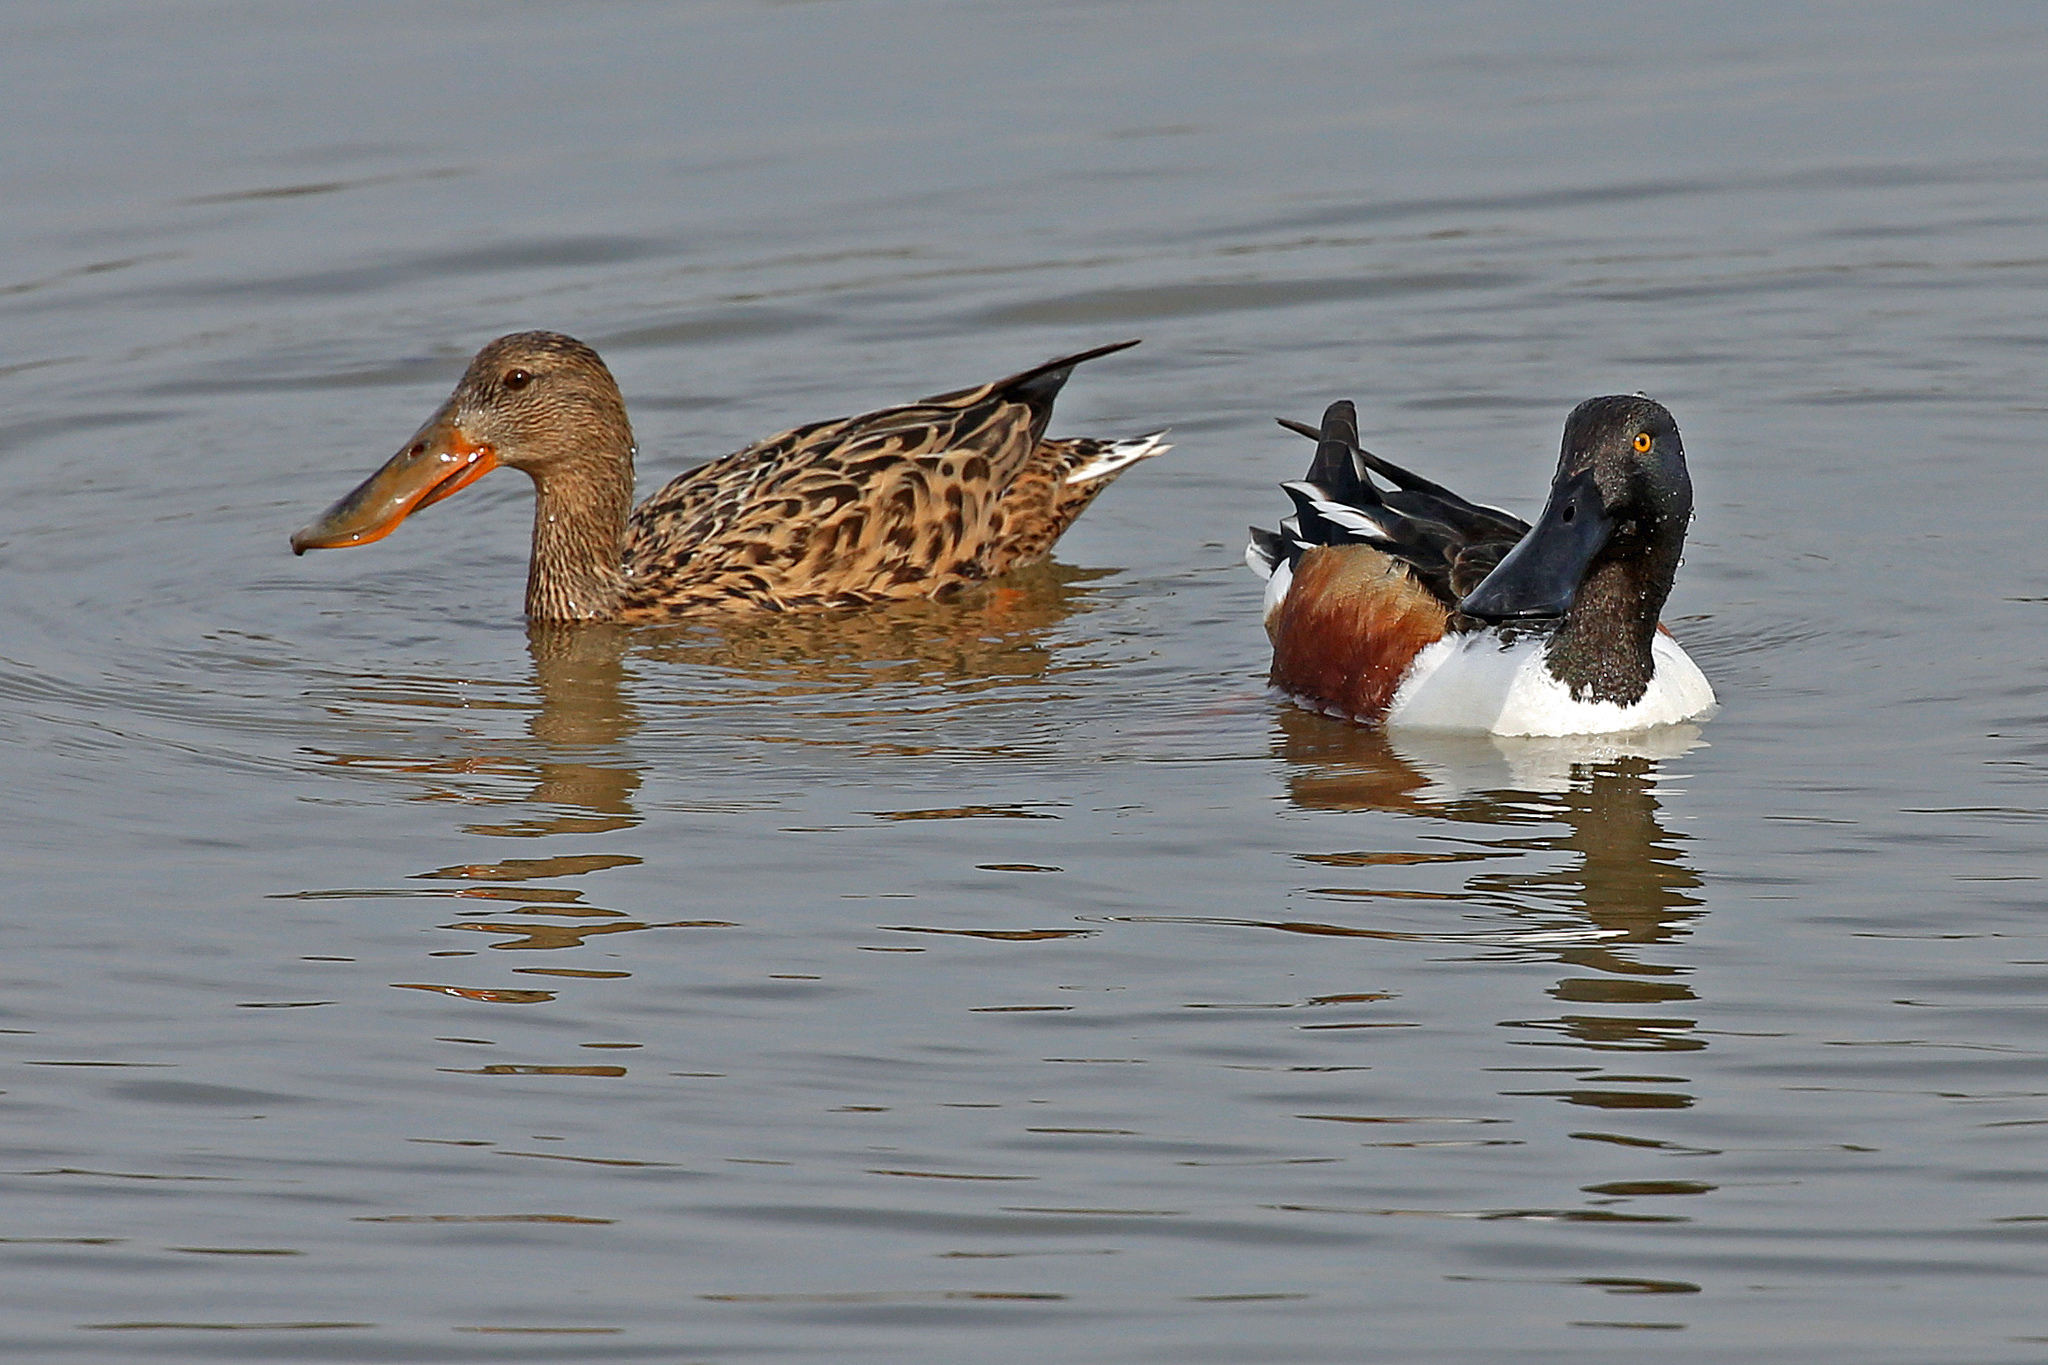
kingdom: Animalia
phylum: Chordata
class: Aves
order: Anseriformes
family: Anatidae
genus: Spatula
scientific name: Spatula clypeata
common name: Northern shoveler
